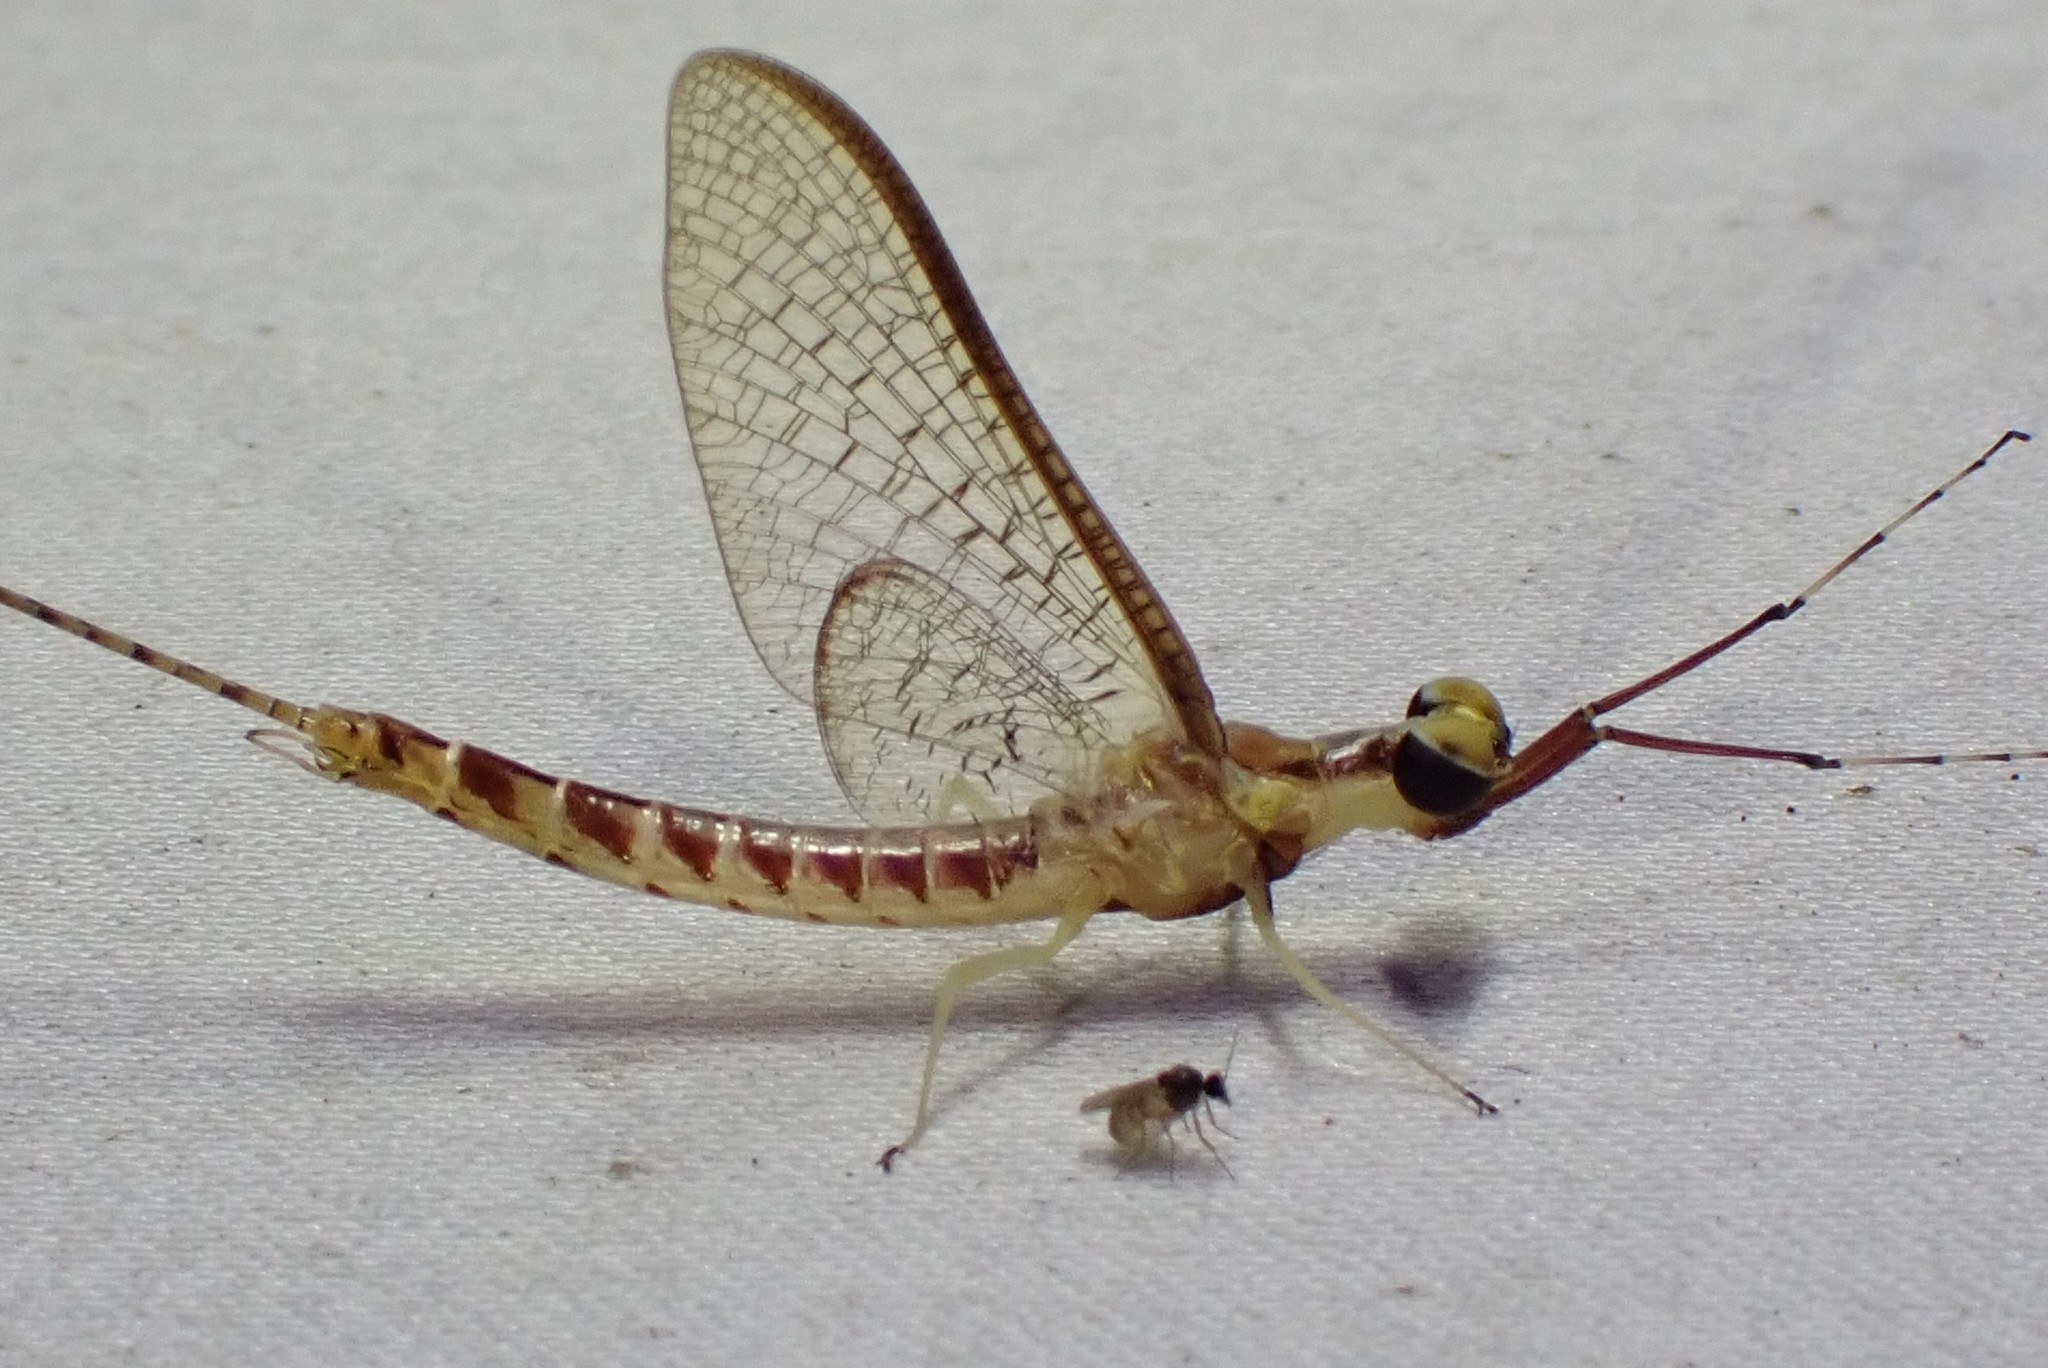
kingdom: Animalia
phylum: Arthropoda
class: Insecta
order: Ephemeroptera
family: Ephemeridae
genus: Hexagenia
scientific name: Hexagenia limbata
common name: Giant mayfly
